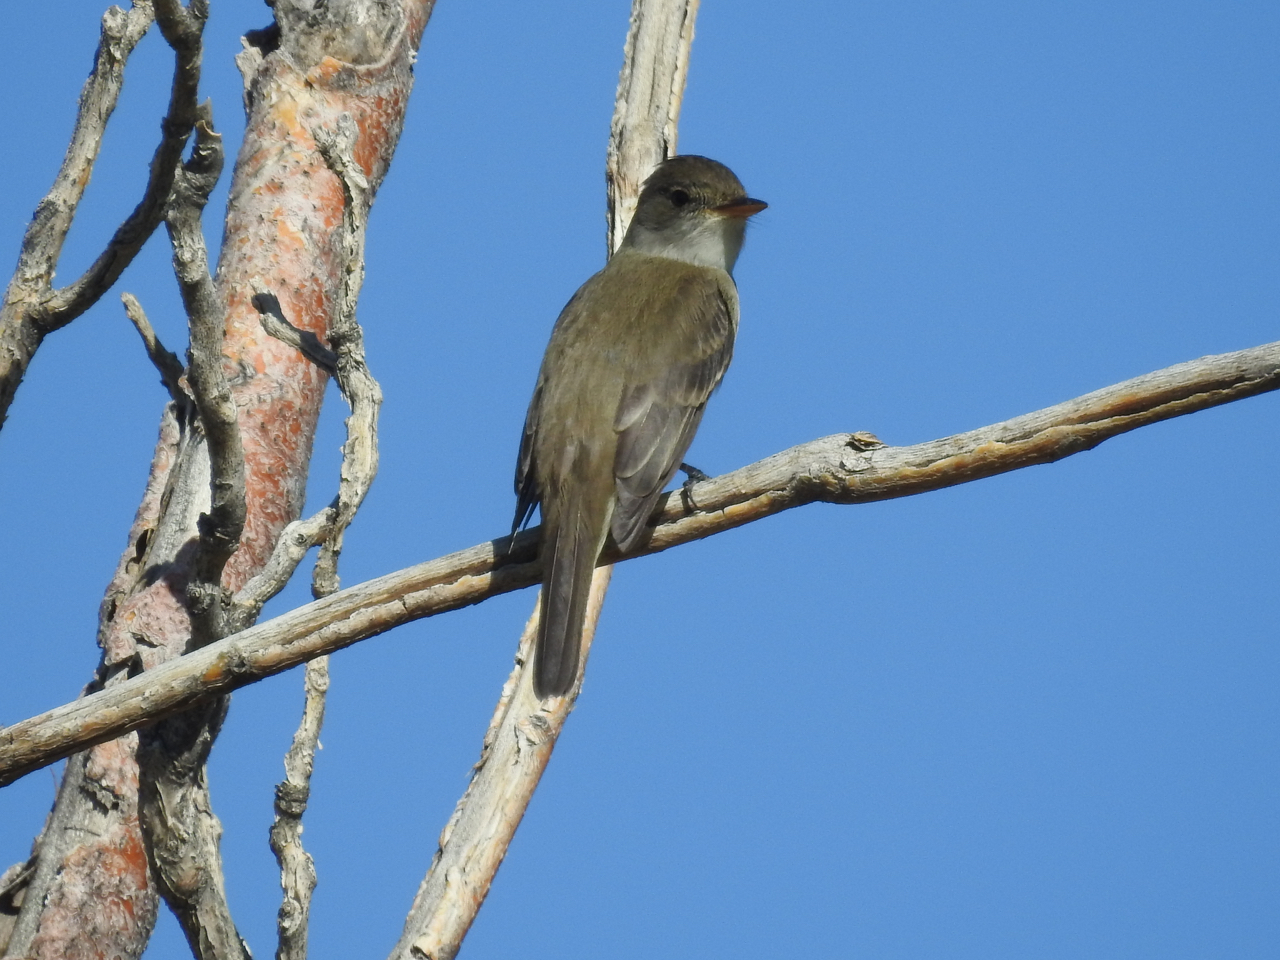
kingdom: Animalia
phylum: Chordata
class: Aves
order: Passeriformes
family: Tyrannidae
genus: Empidonax
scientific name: Empidonax traillii
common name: Willow flycatcher
